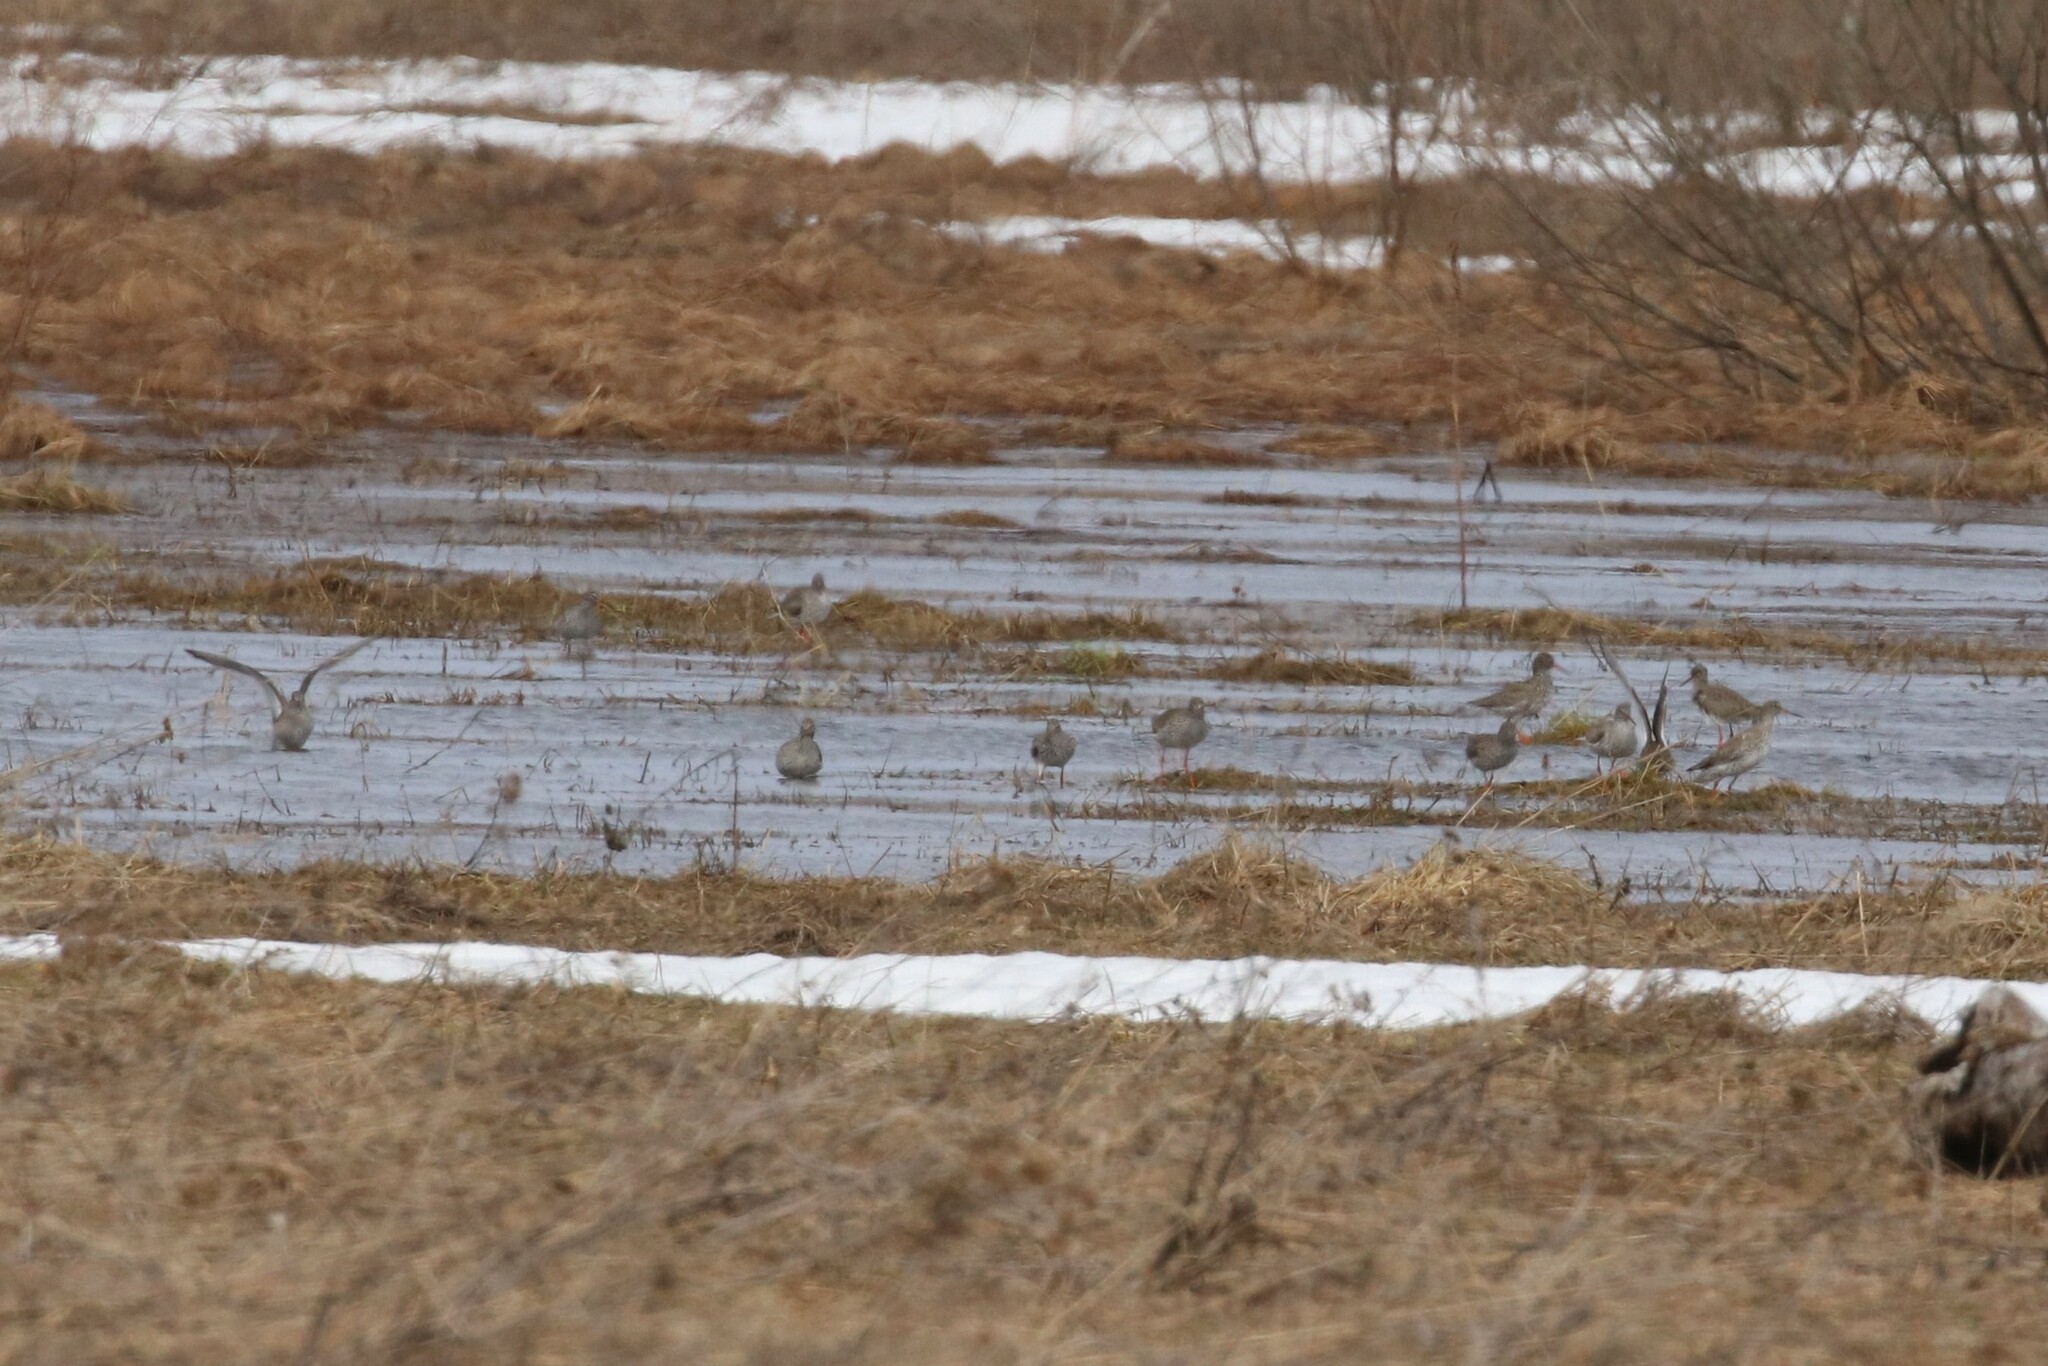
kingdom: Animalia
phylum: Chordata
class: Aves
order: Charadriiformes
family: Scolopacidae
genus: Tringa
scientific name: Tringa totanus
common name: Common redshank
